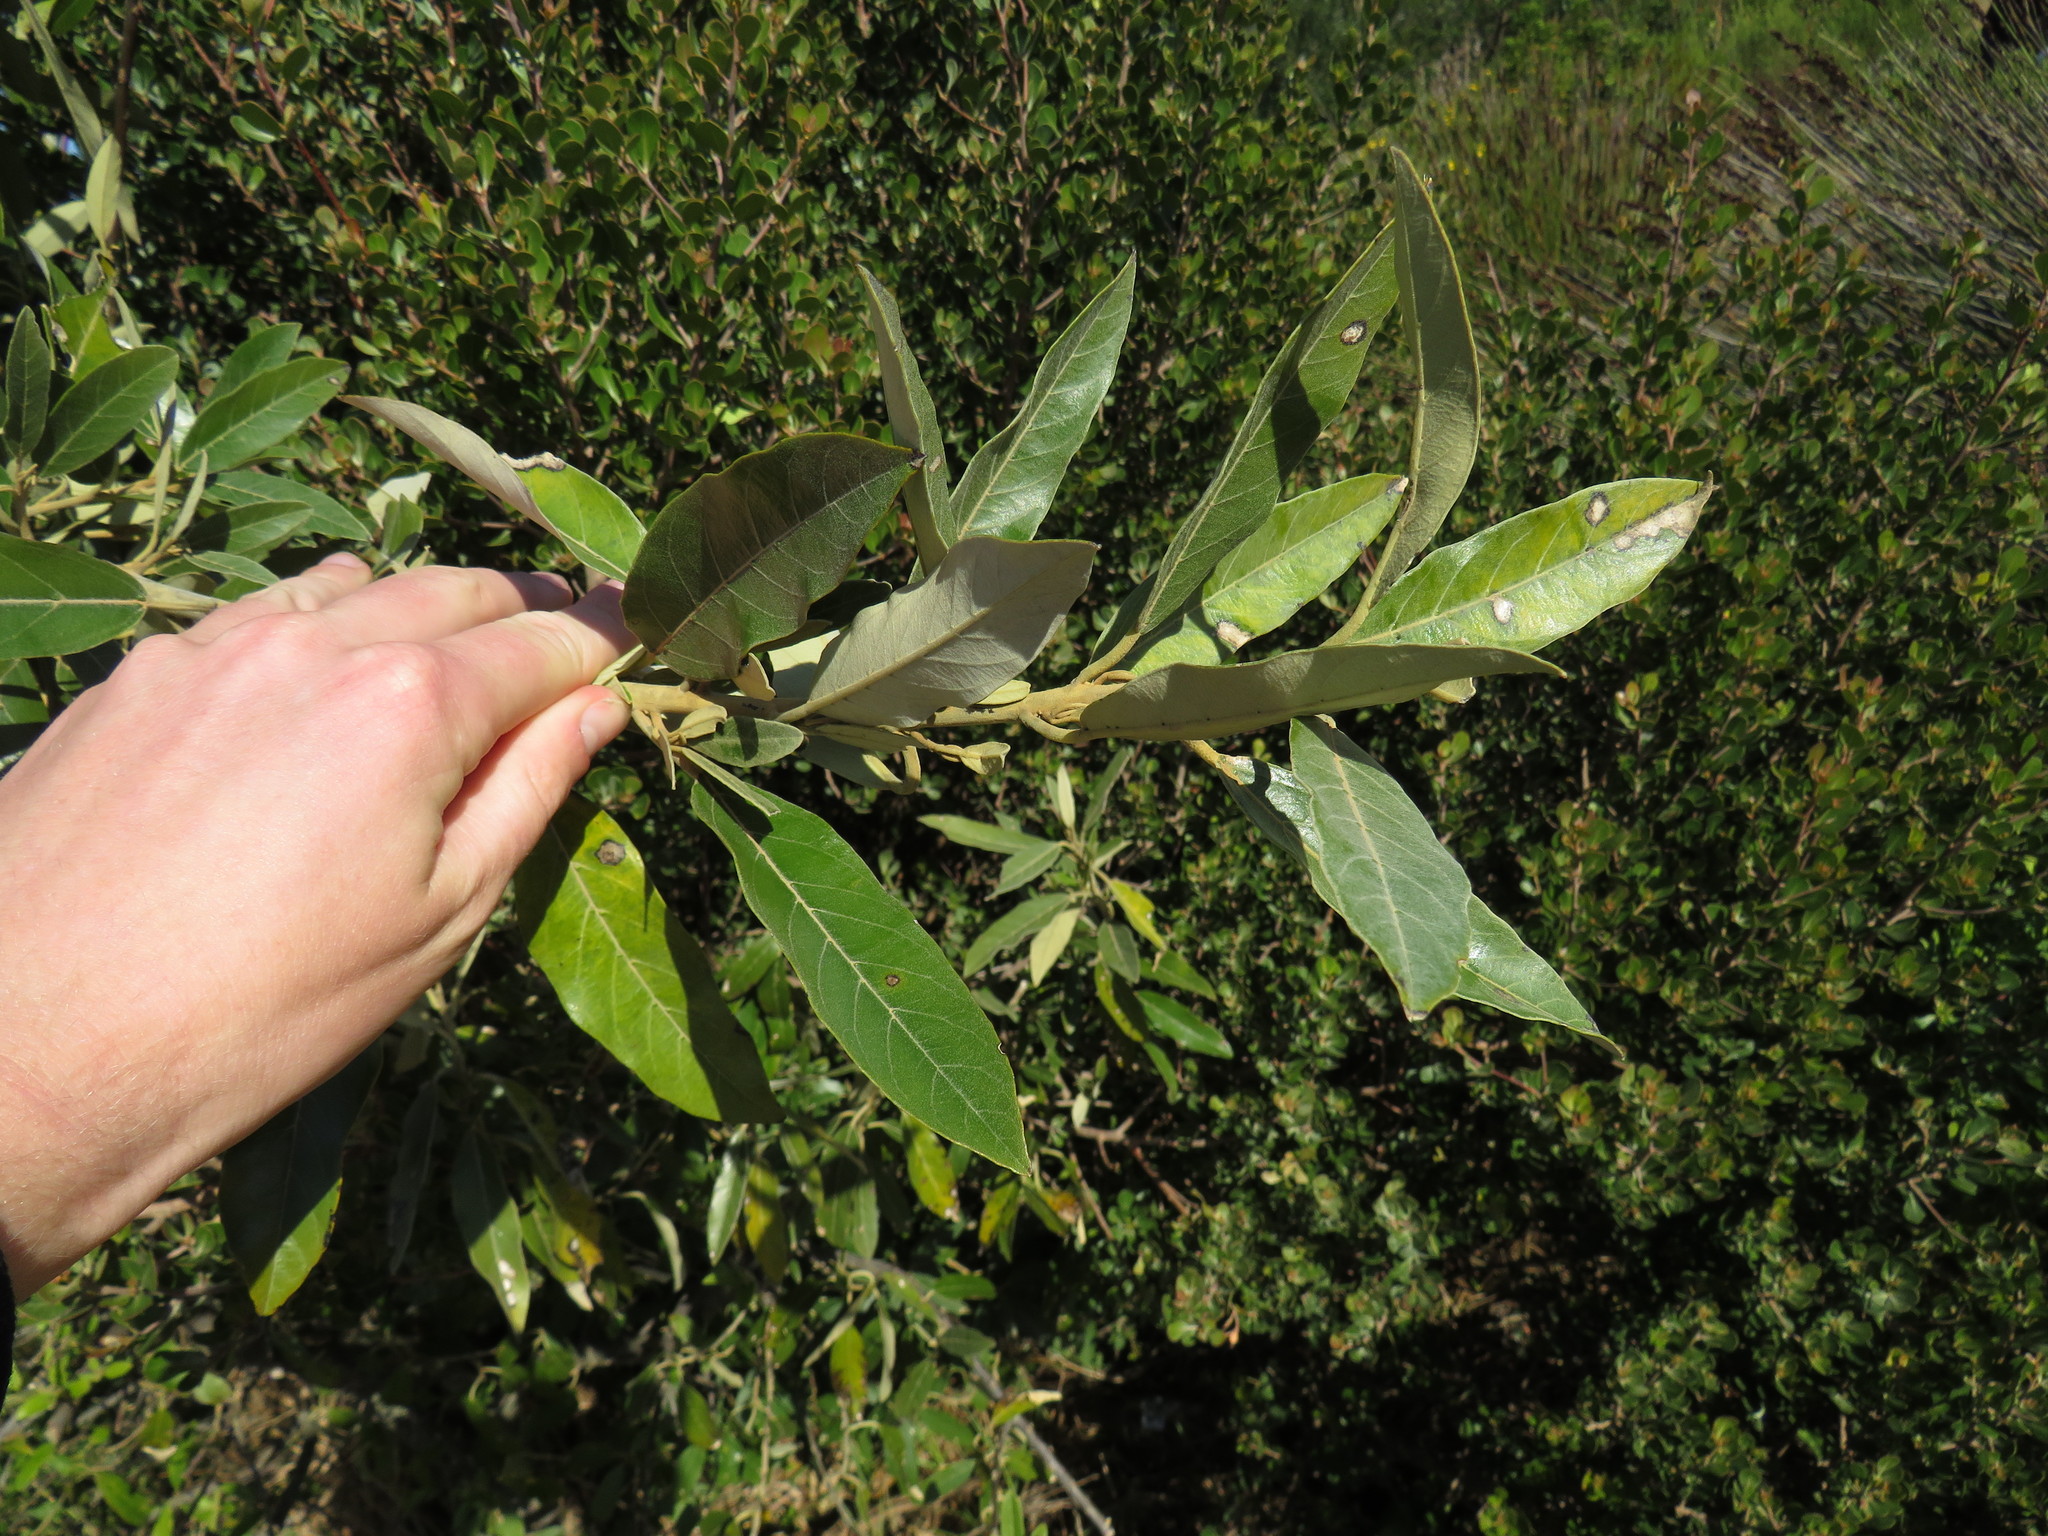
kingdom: Plantae
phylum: Tracheophyta
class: Magnoliopsida
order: Malpighiales
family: Achariaceae
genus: Kiggelaria
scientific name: Kiggelaria africana
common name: Wild peach
